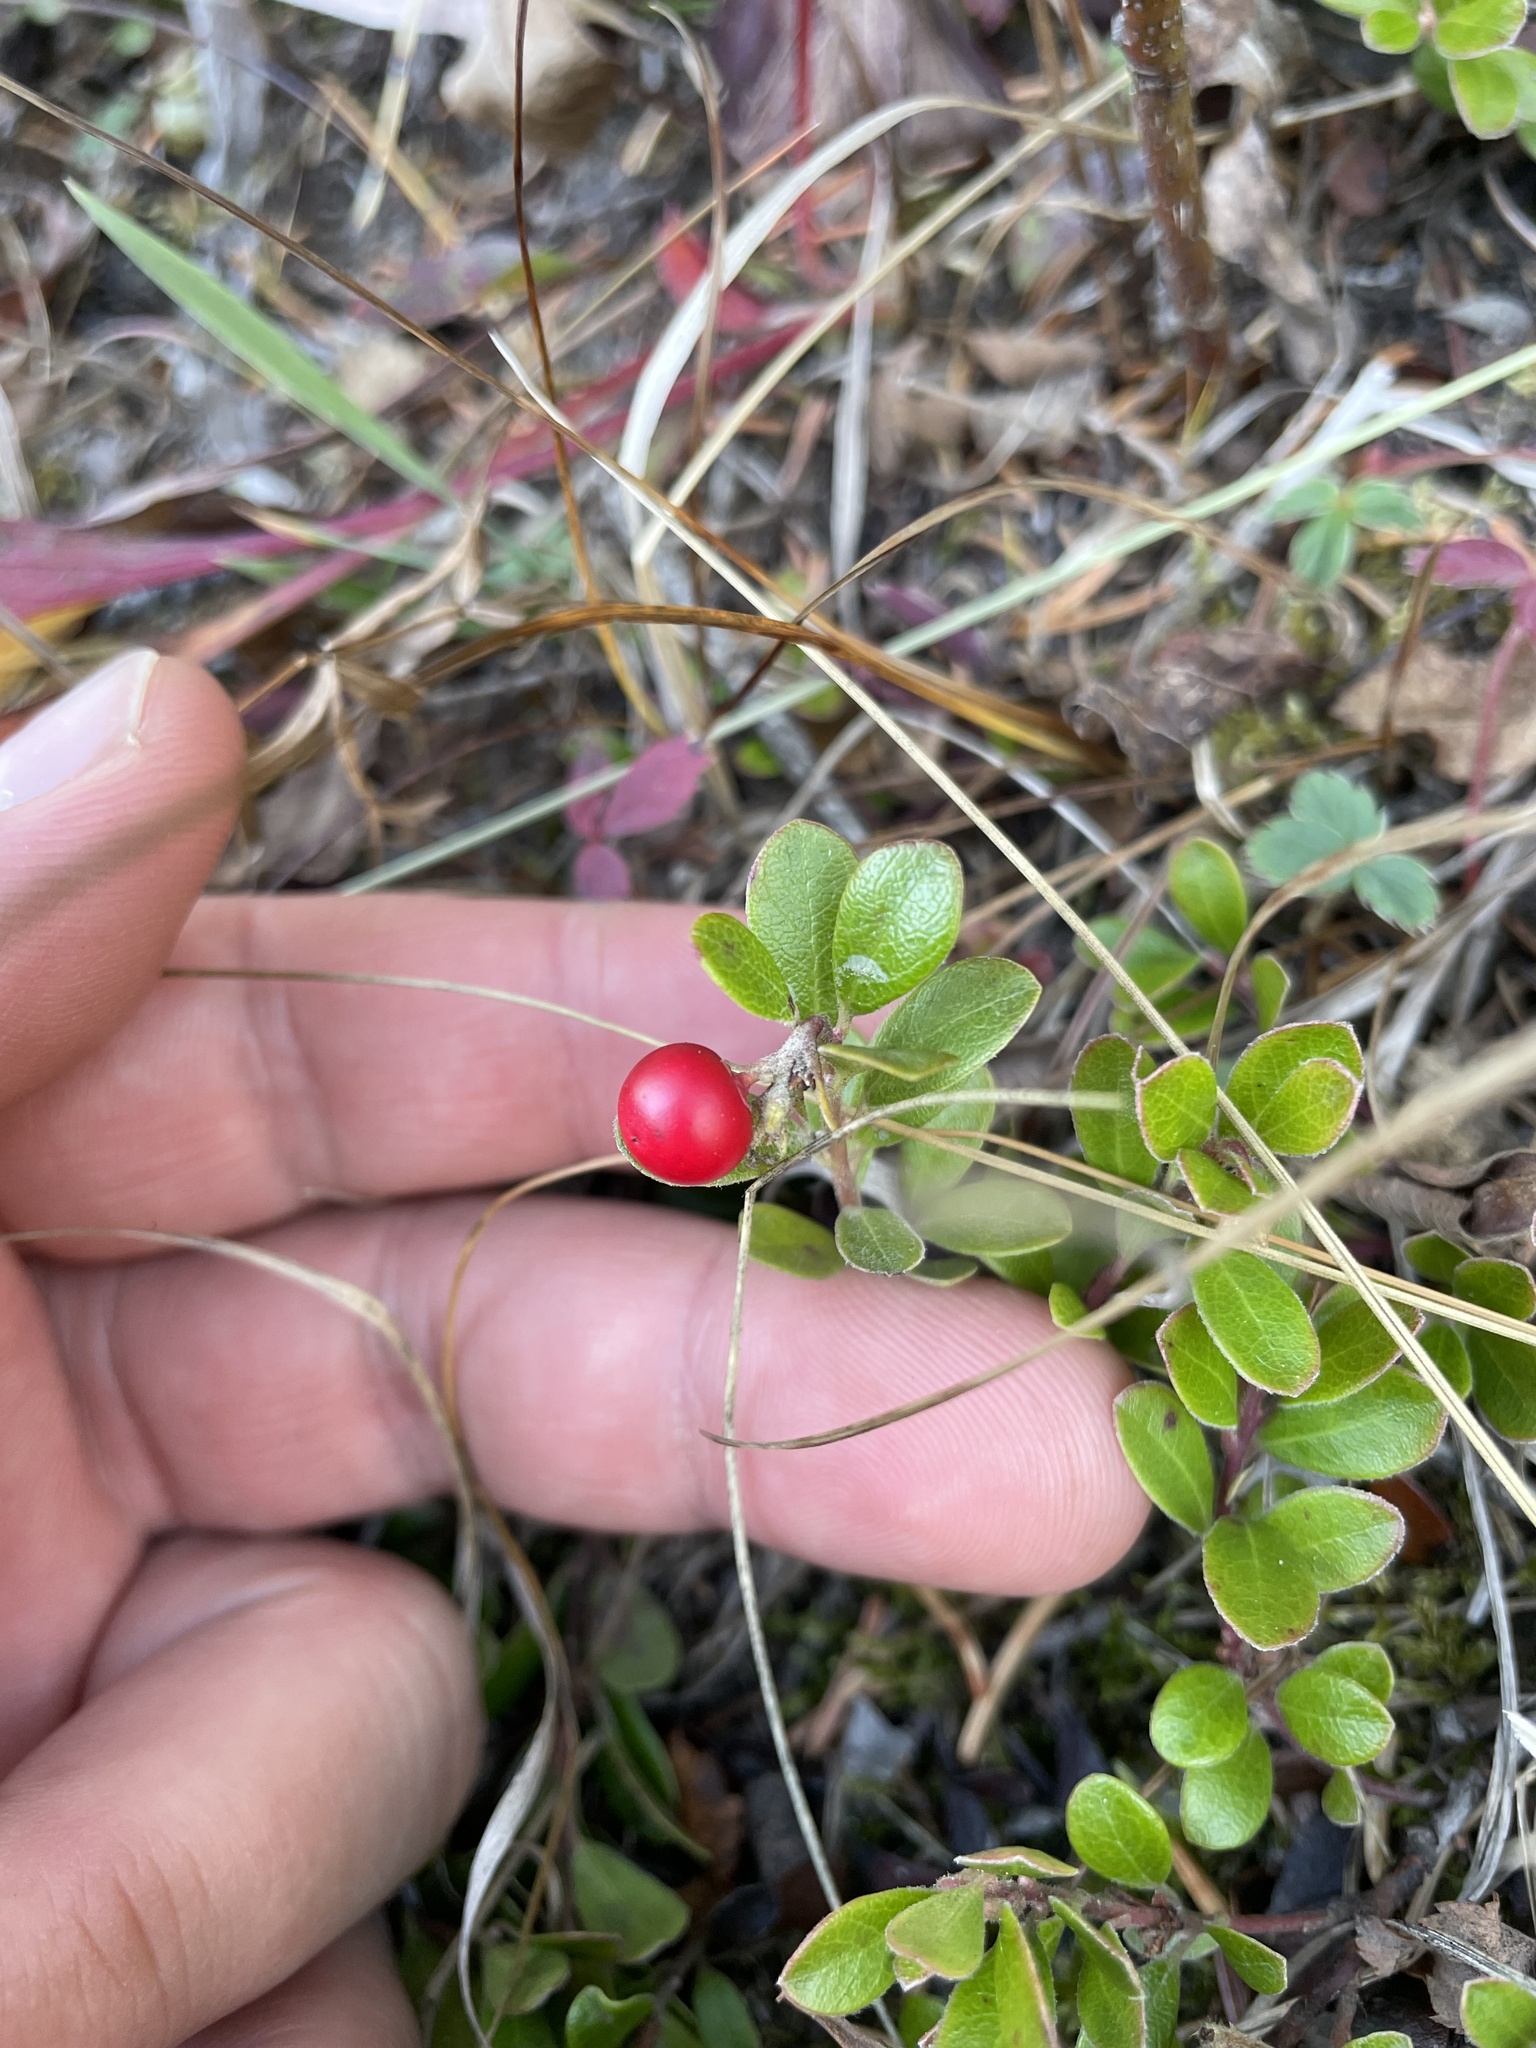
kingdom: Plantae
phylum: Tracheophyta
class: Magnoliopsida
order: Ericales
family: Ericaceae
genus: Arctostaphylos
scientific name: Arctostaphylos uva-ursi
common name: Bearberry
